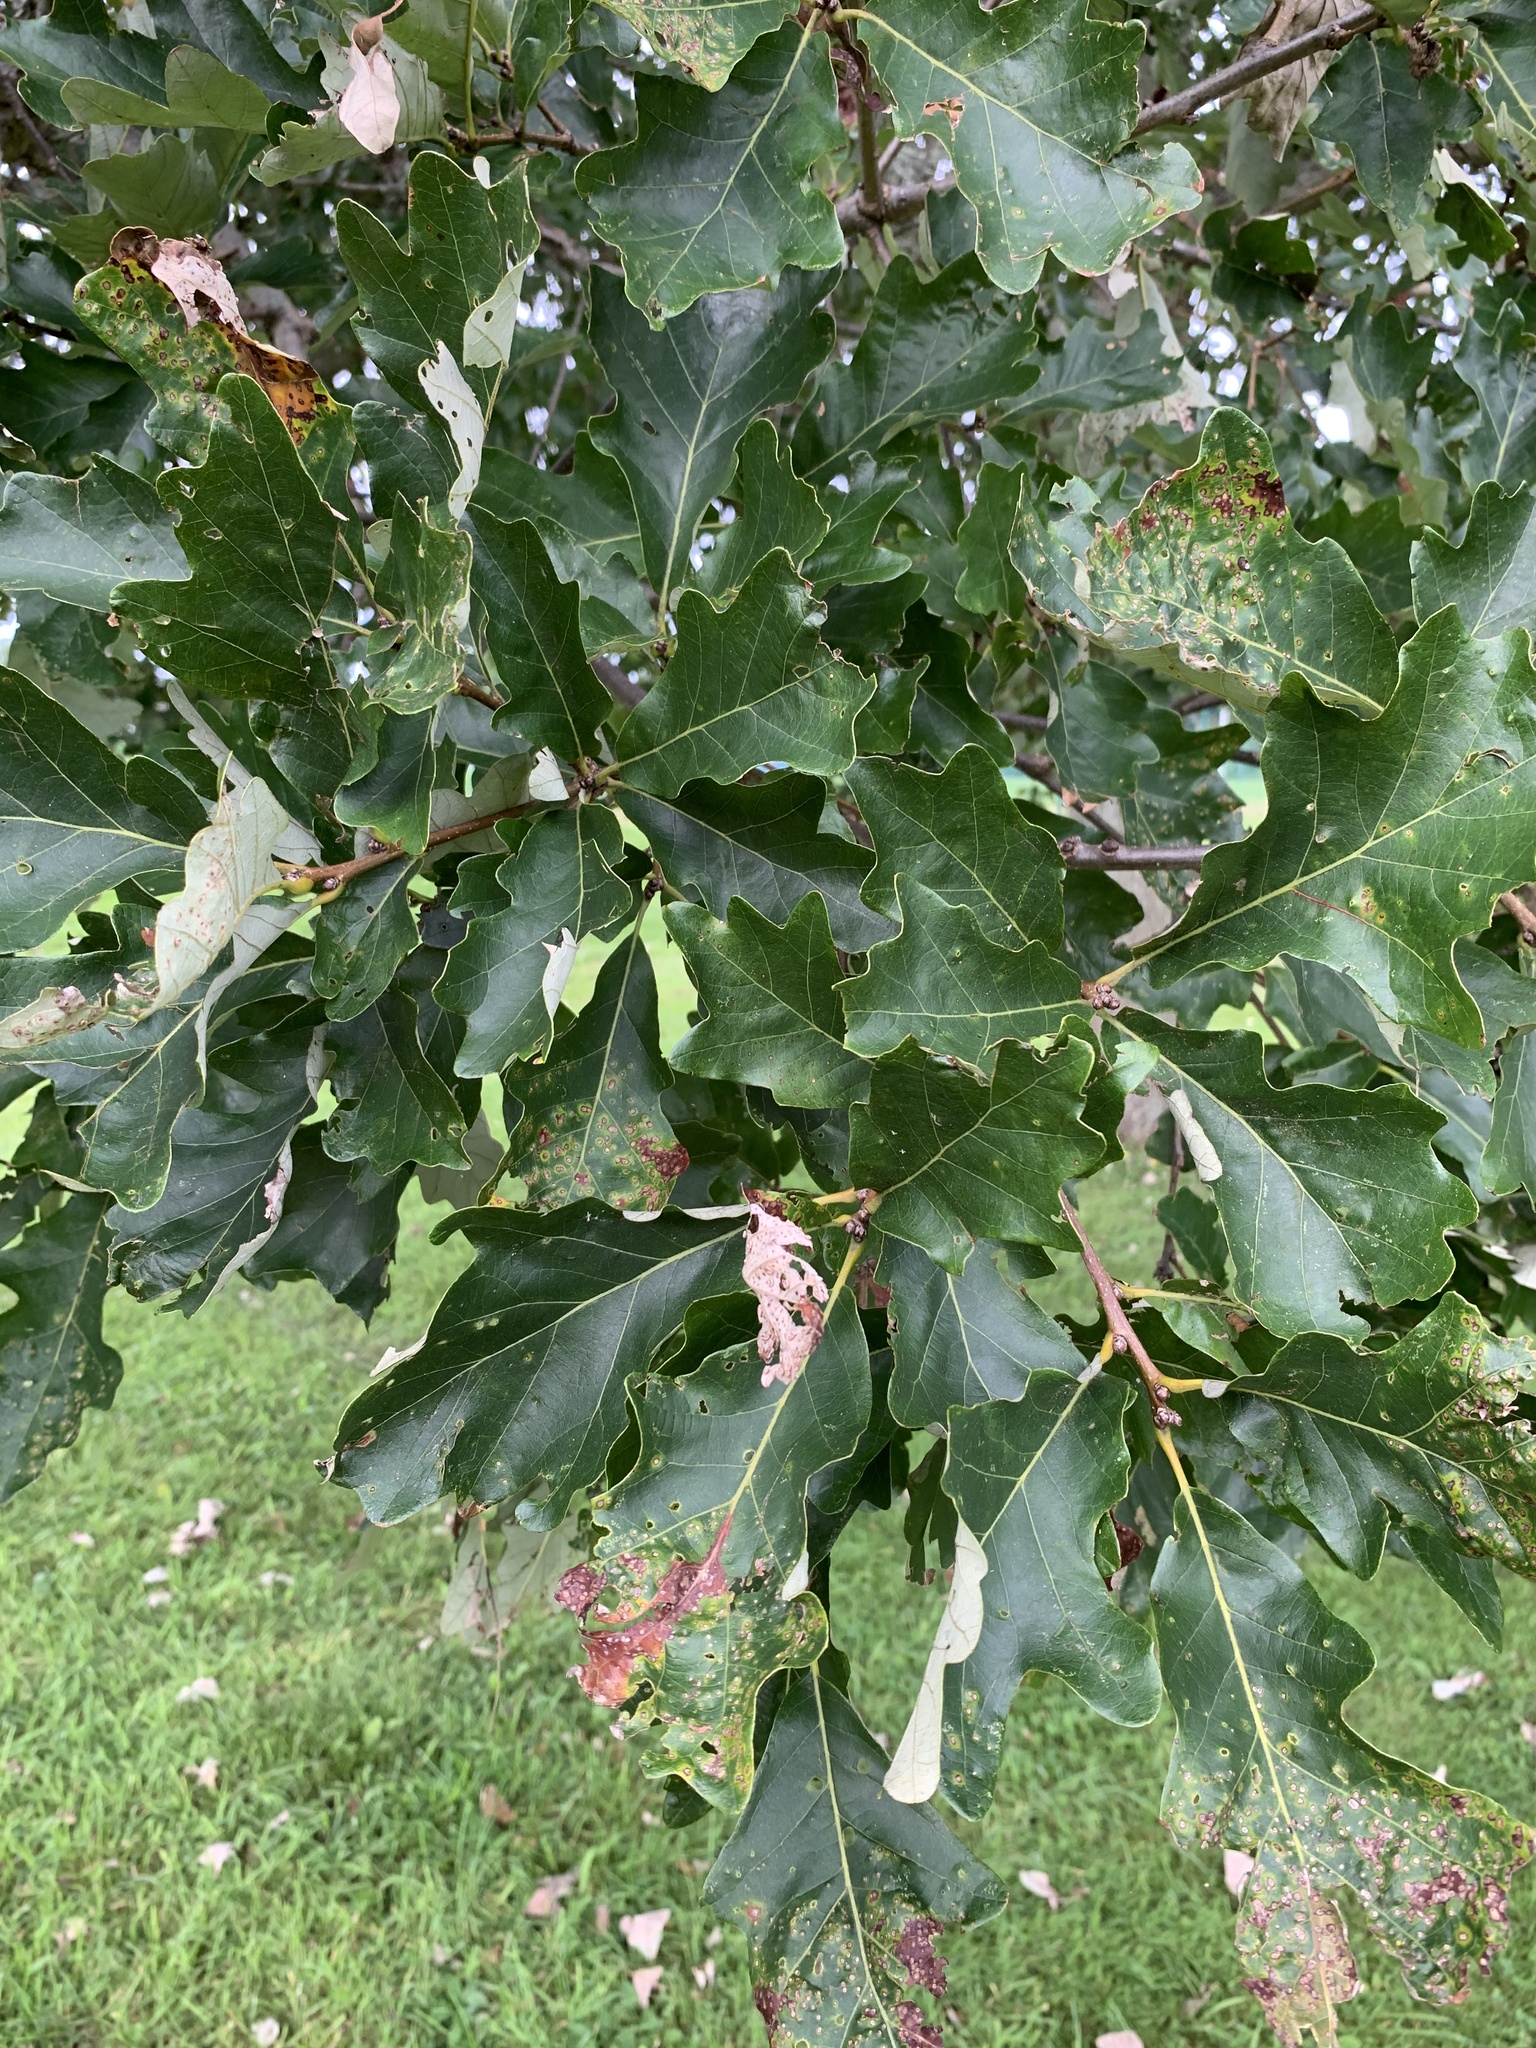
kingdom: Plantae
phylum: Tracheophyta
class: Magnoliopsida
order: Fagales
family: Fagaceae
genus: Quercus
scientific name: Quercus bicolor
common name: Swamp white oak
